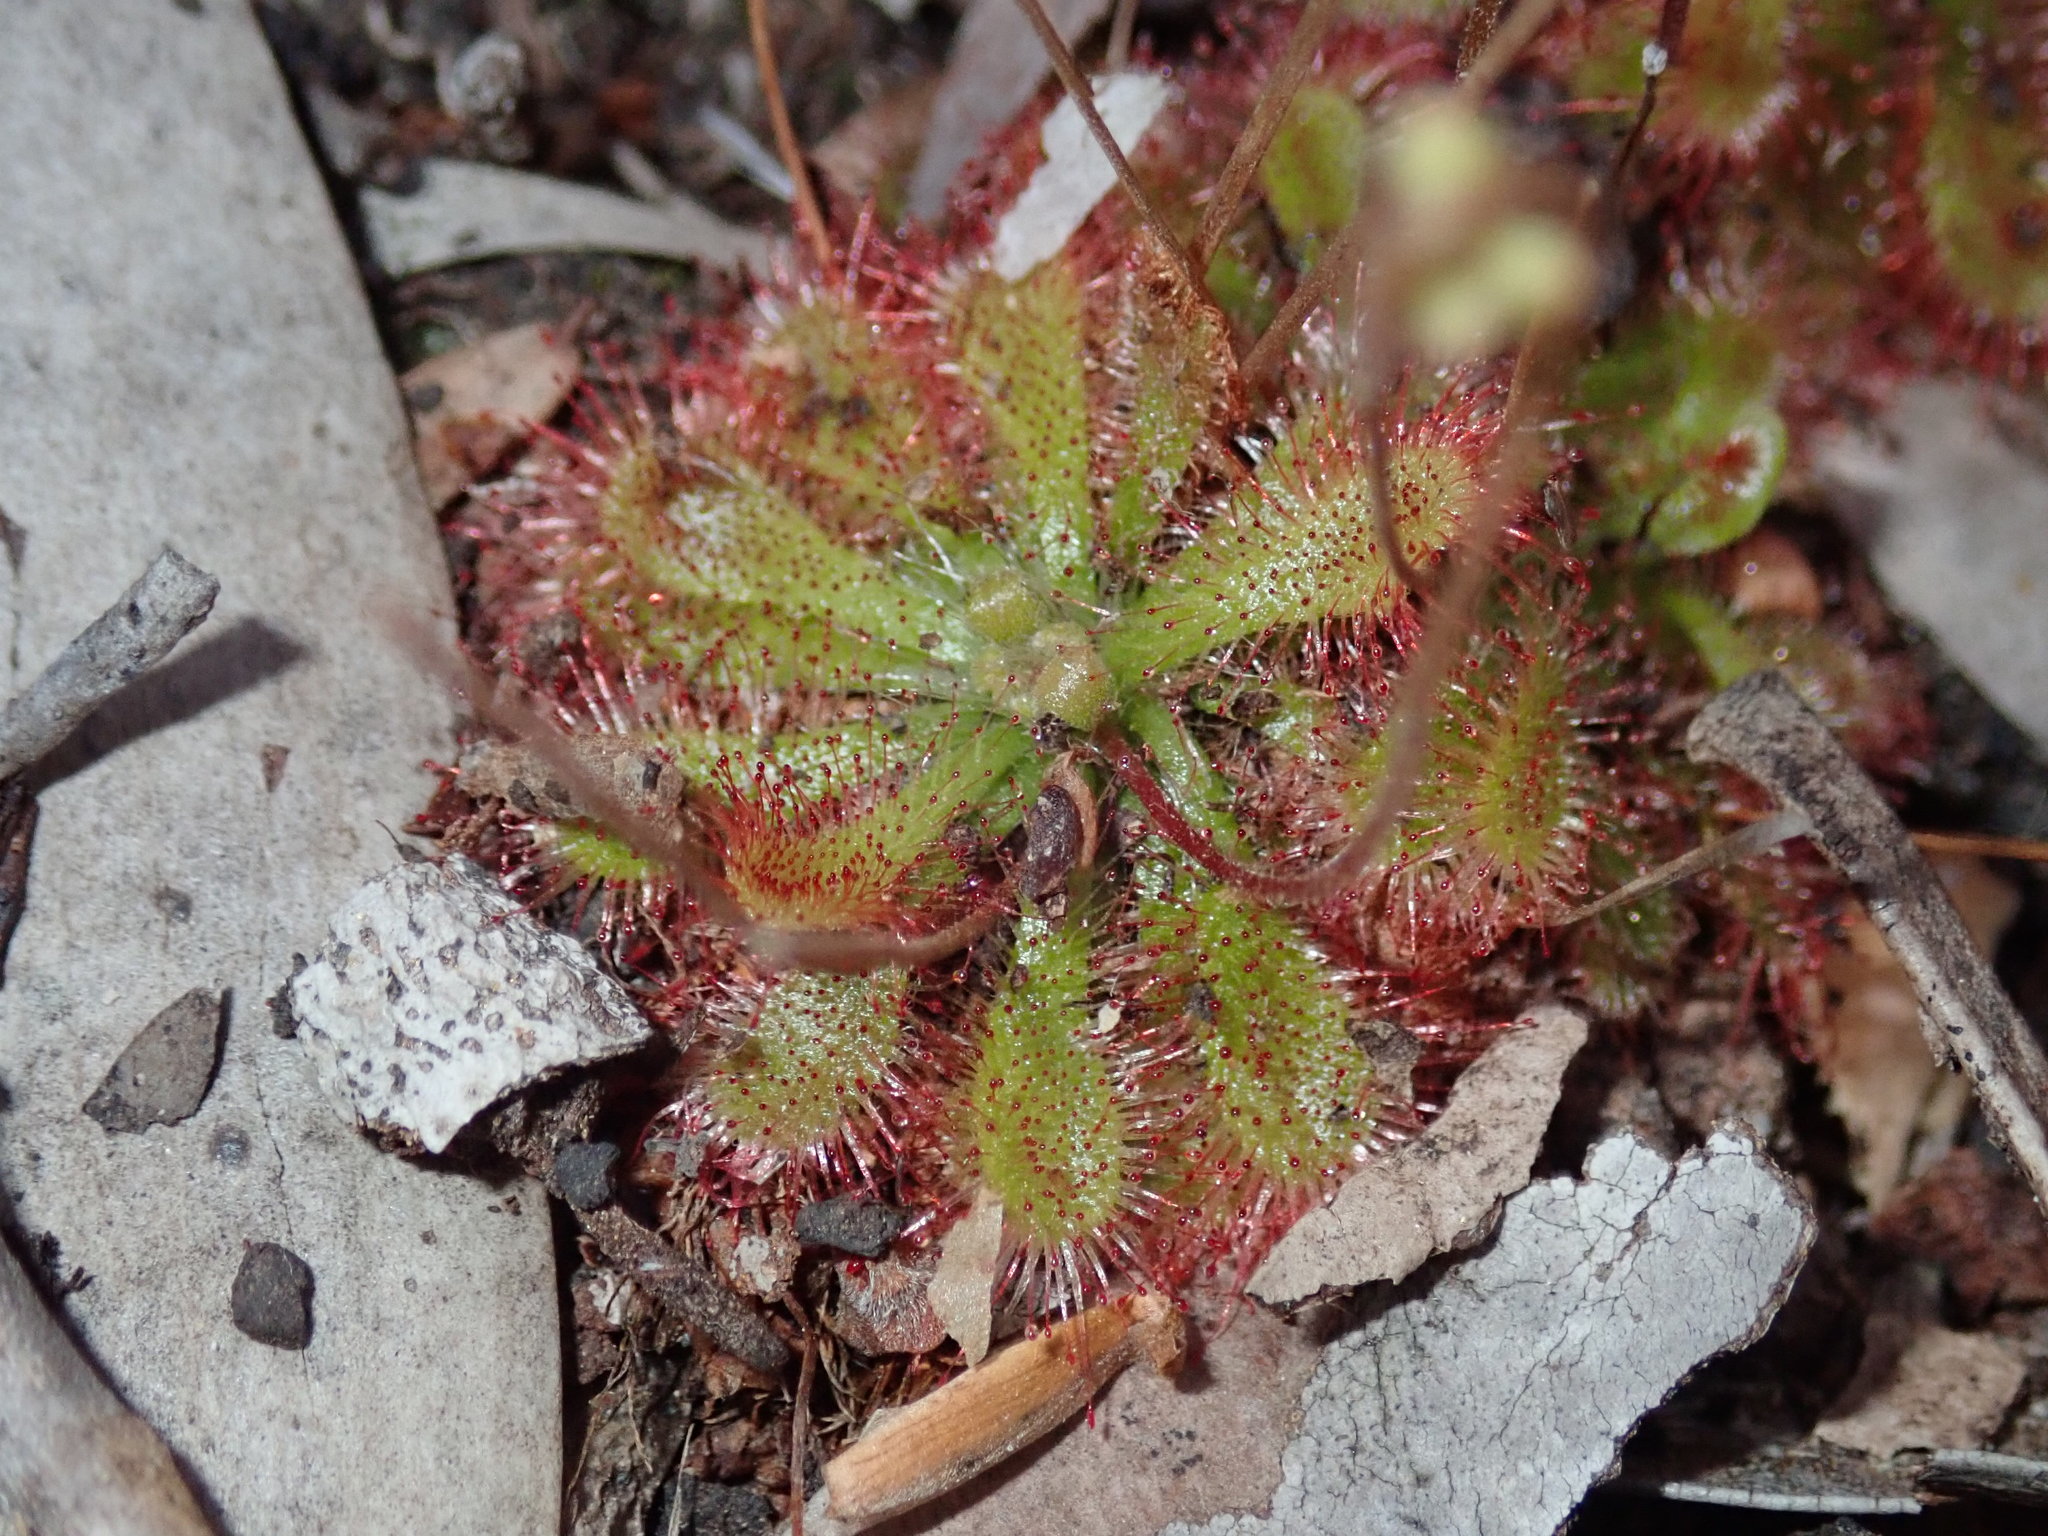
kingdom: Plantae
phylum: Tracheophyta
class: Magnoliopsida
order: Caryophyllales
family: Droseraceae
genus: Drosera
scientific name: Drosera spatulata
